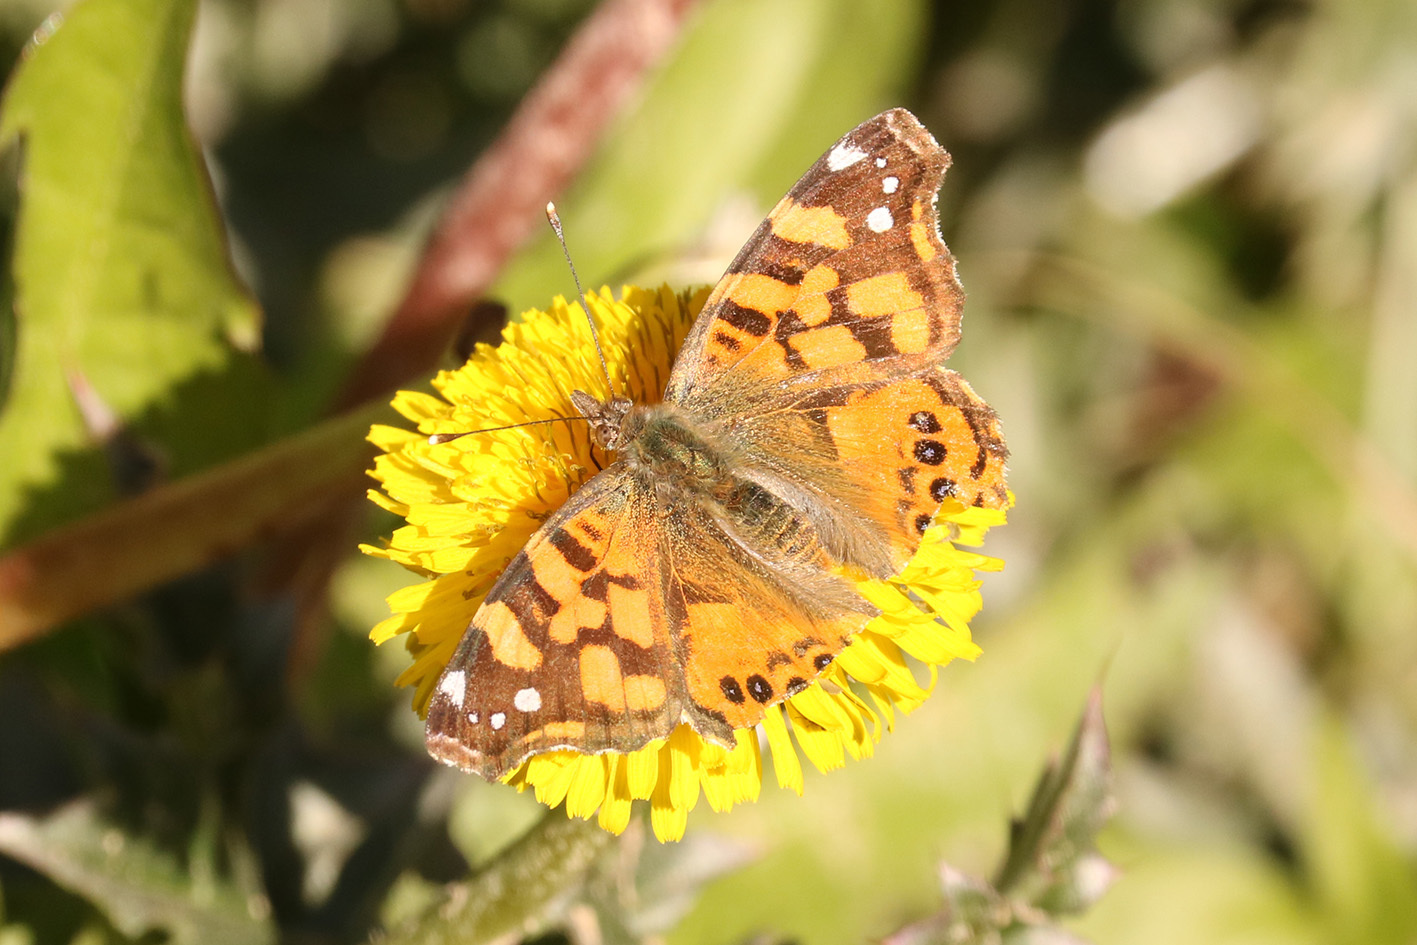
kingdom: Animalia
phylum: Arthropoda
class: Insecta
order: Lepidoptera
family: Nymphalidae
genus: Vanessa
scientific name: Vanessa carye
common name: Subtropical lady
